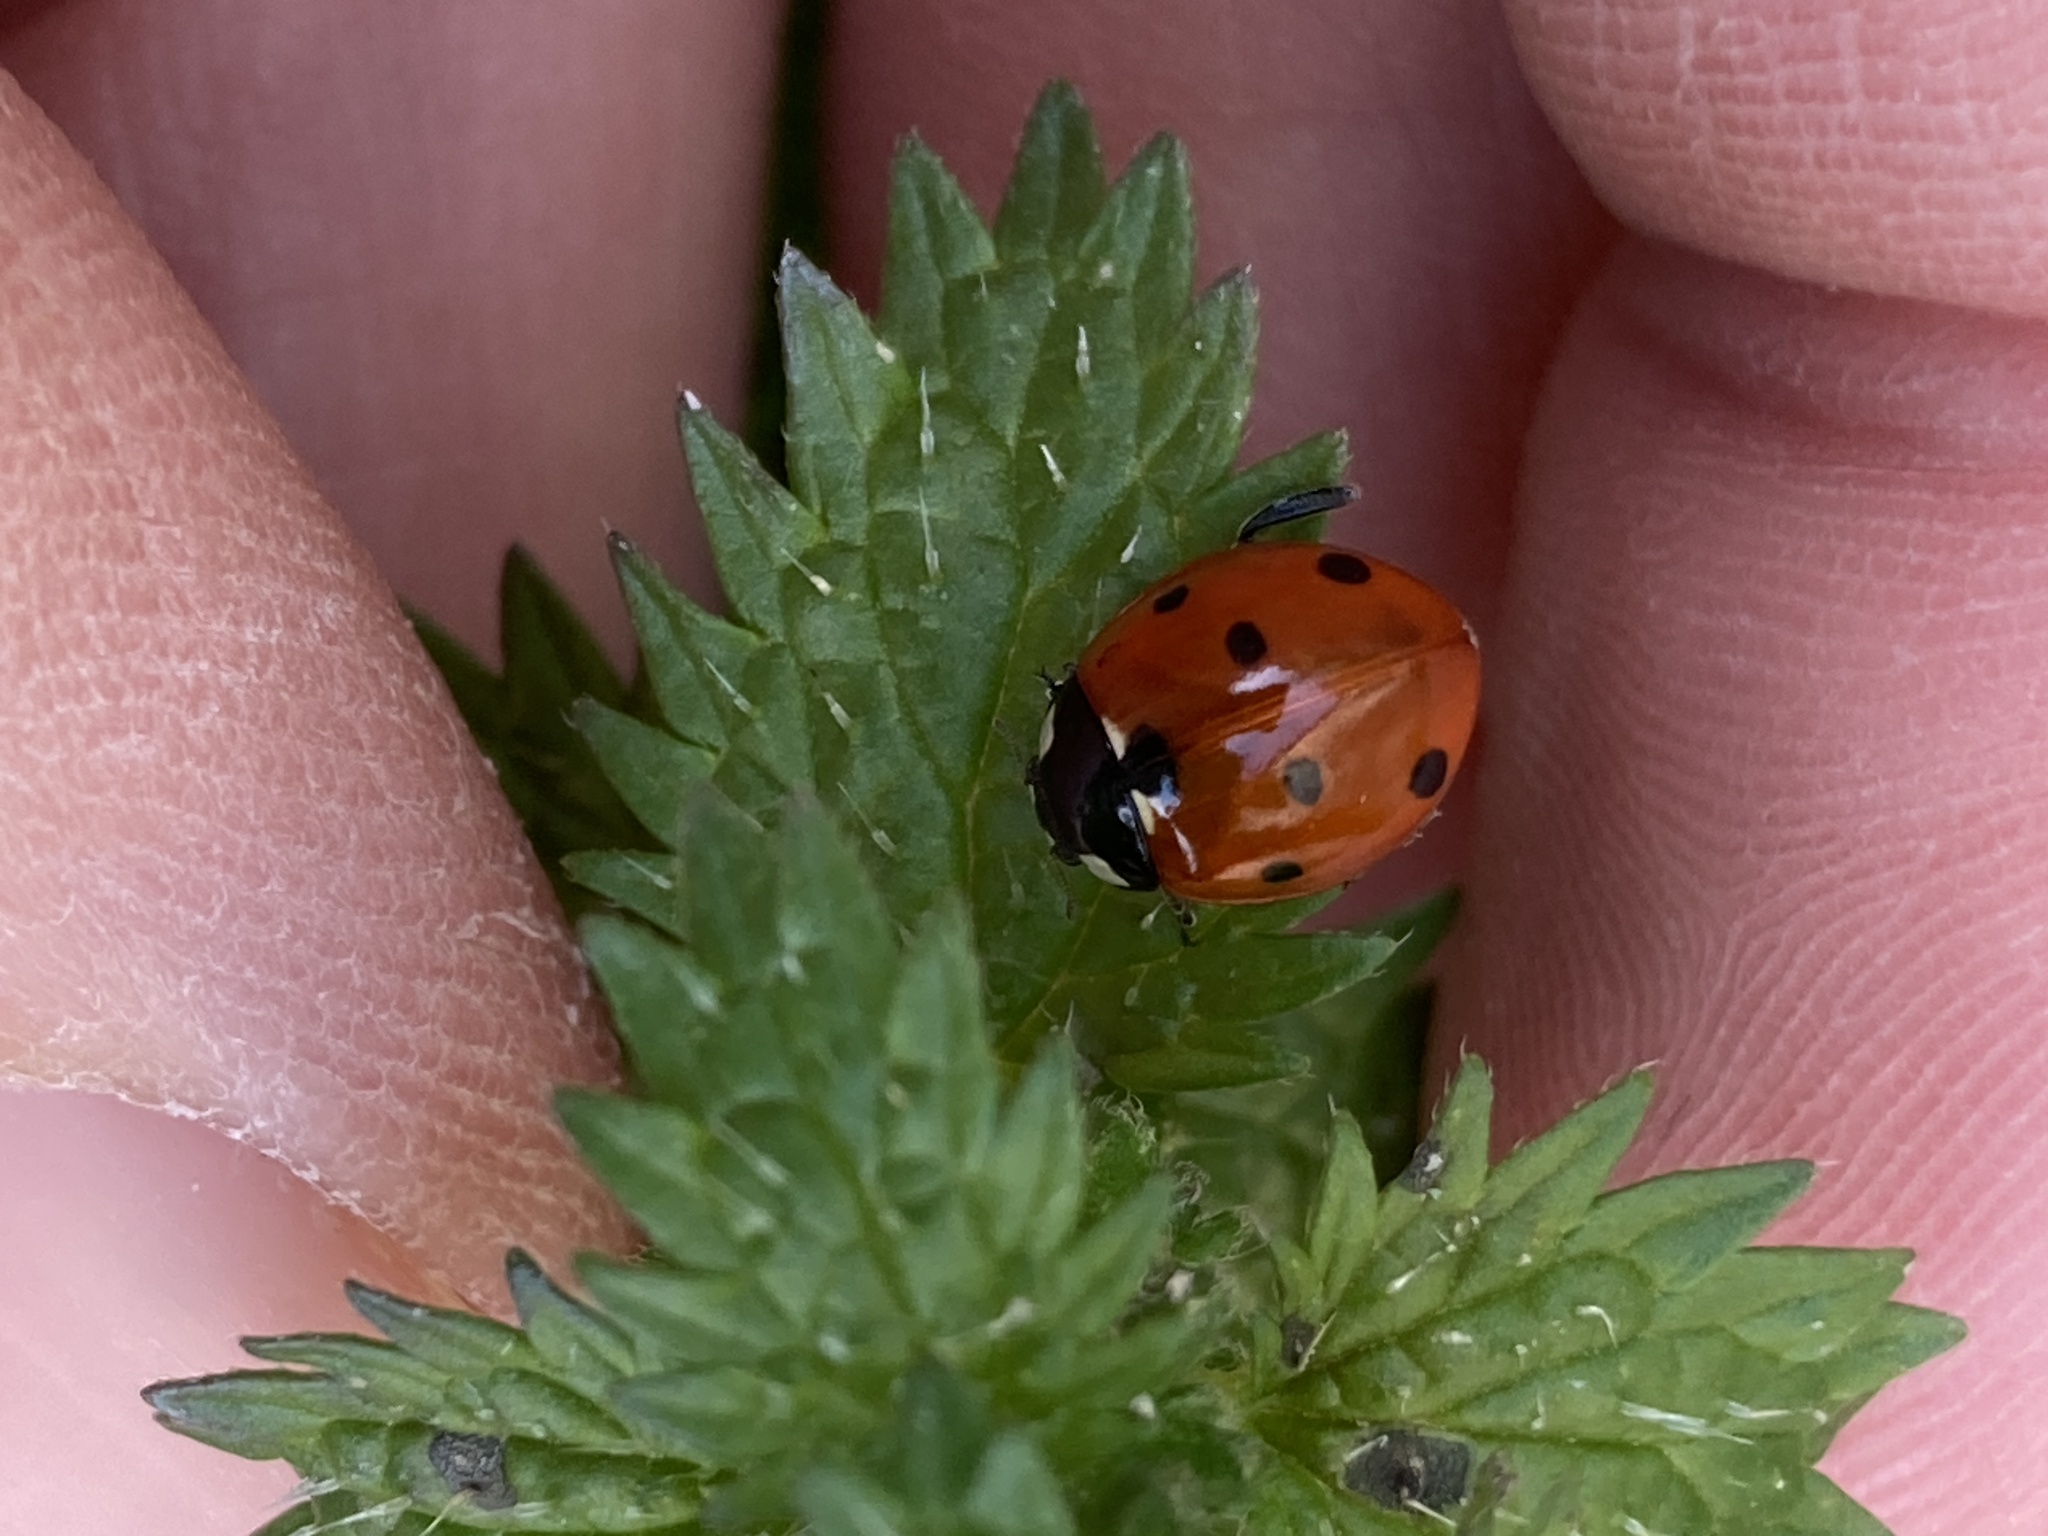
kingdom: Animalia
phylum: Arthropoda
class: Insecta
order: Coleoptera
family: Coccinellidae
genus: Coccinella
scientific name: Coccinella septempunctata
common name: Sevenspotted lady beetle
